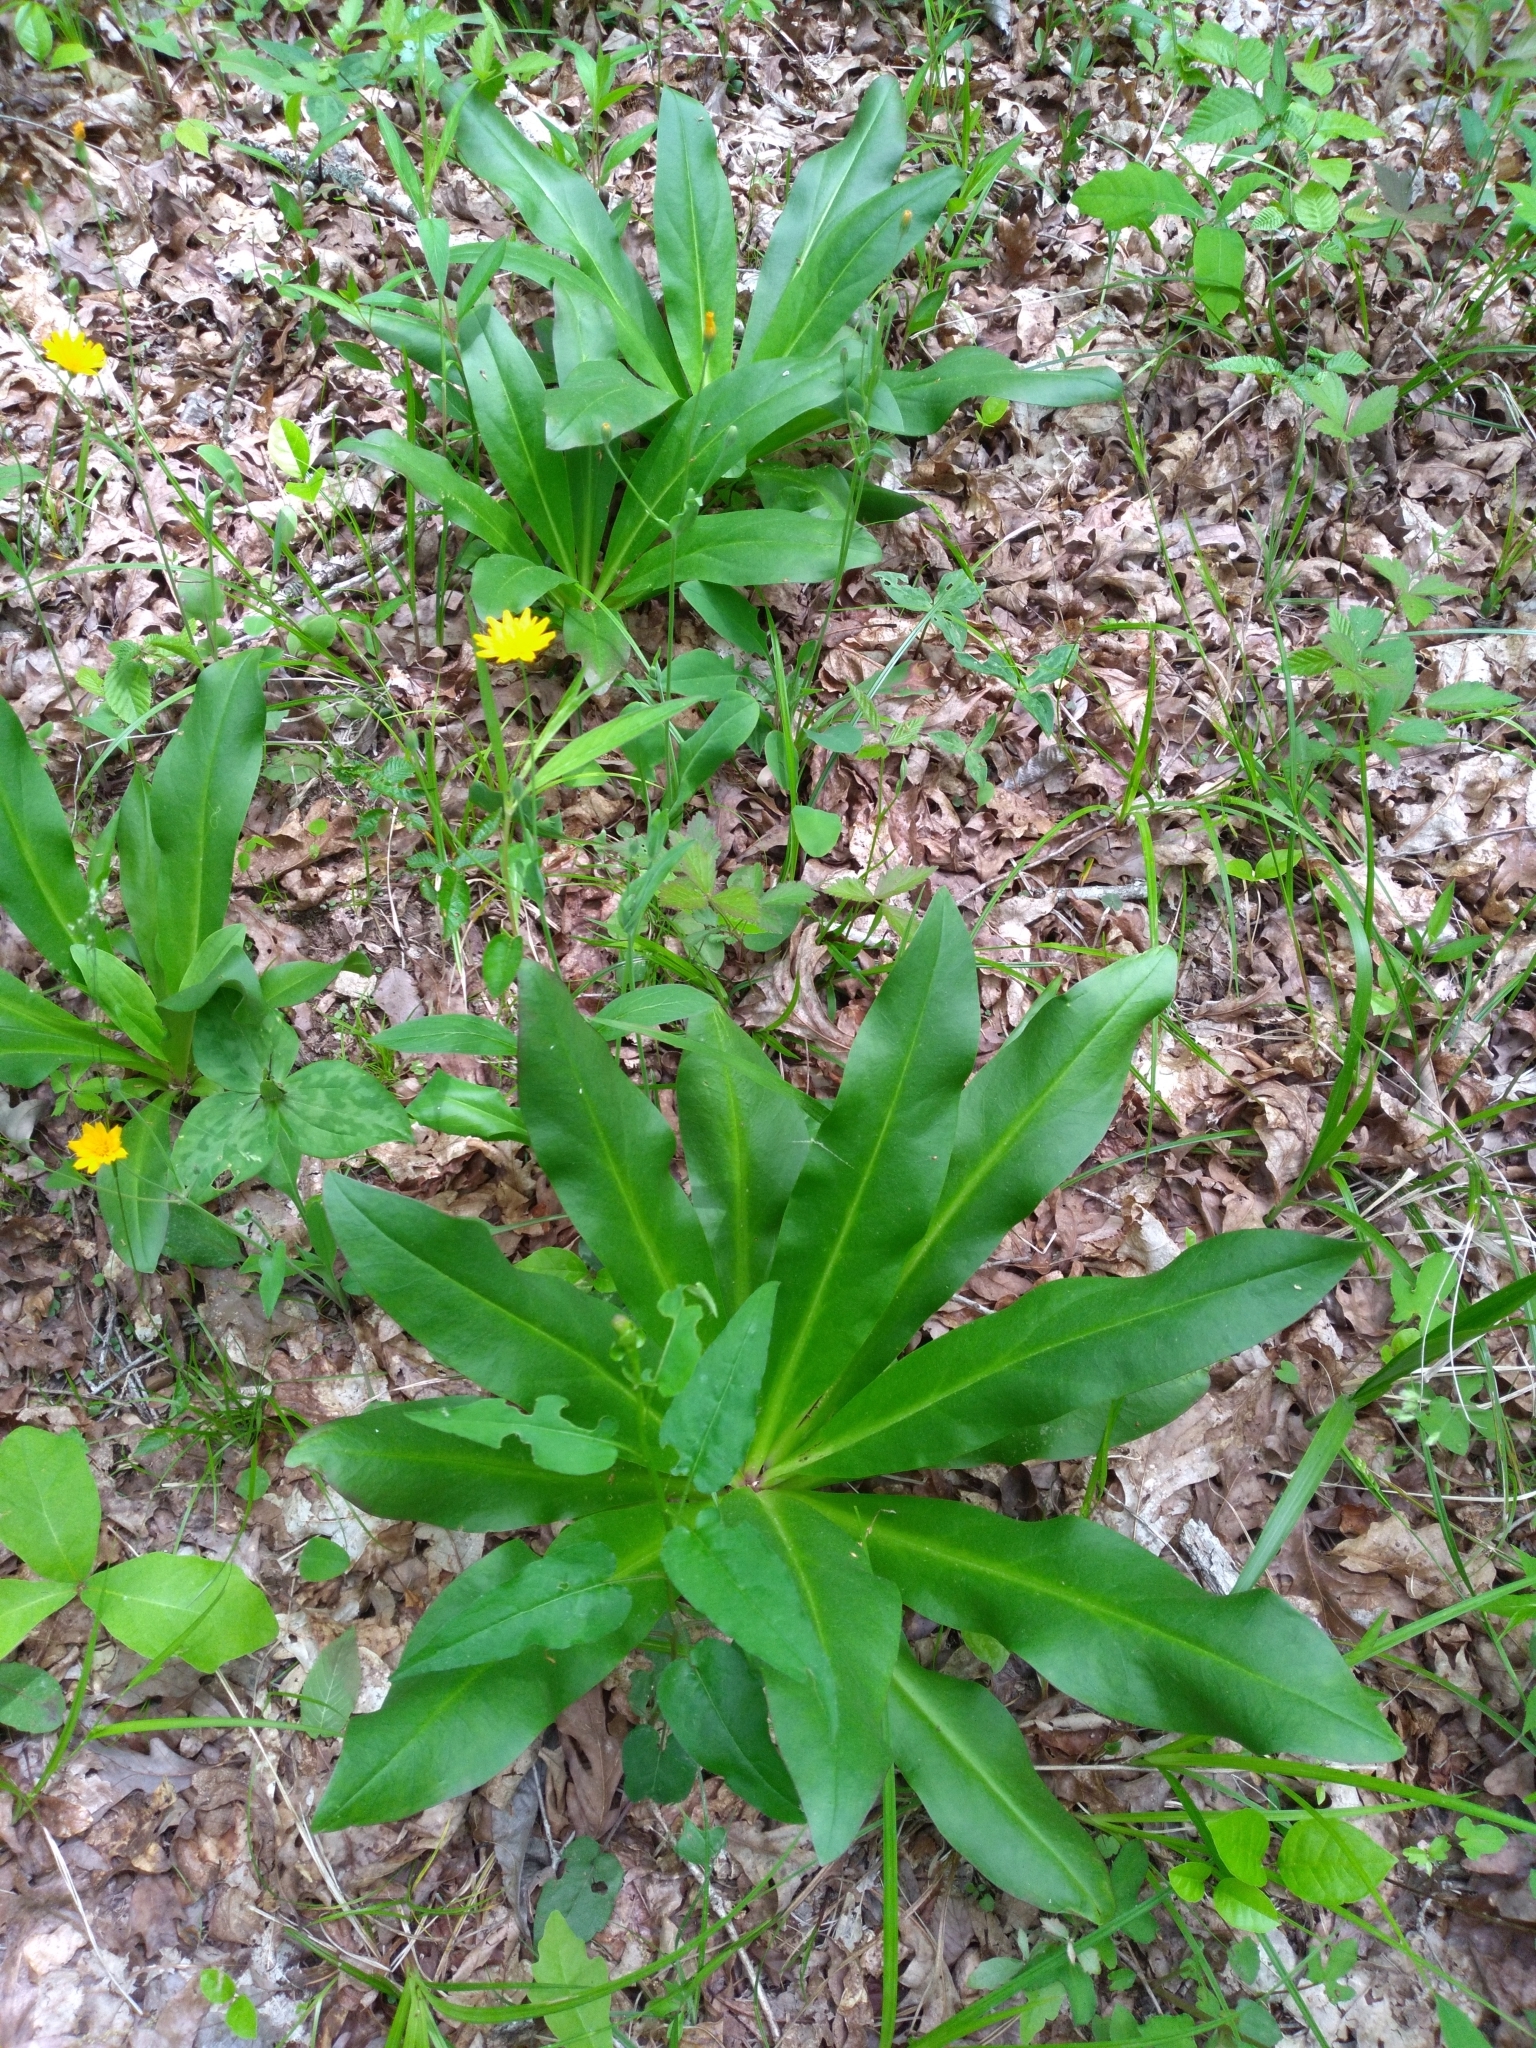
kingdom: Plantae
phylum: Tracheophyta
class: Magnoliopsida
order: Gentianales
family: Gentianaceae
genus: Frasera
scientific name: Frasera caroliniensis
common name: American columbo
